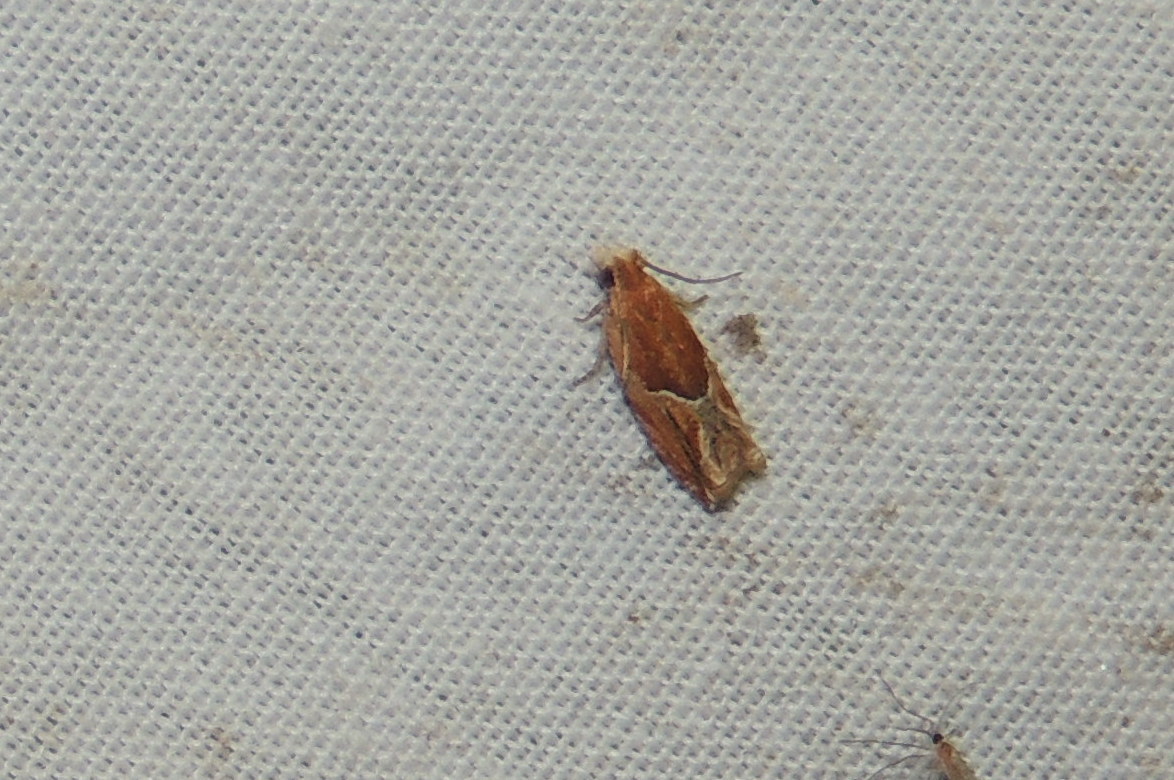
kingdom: Animalia
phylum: Arthropoda
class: Insecta
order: Lepidoptera
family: Tortricidae
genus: Ancylis
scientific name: Ancylis comptana
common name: Little roller
